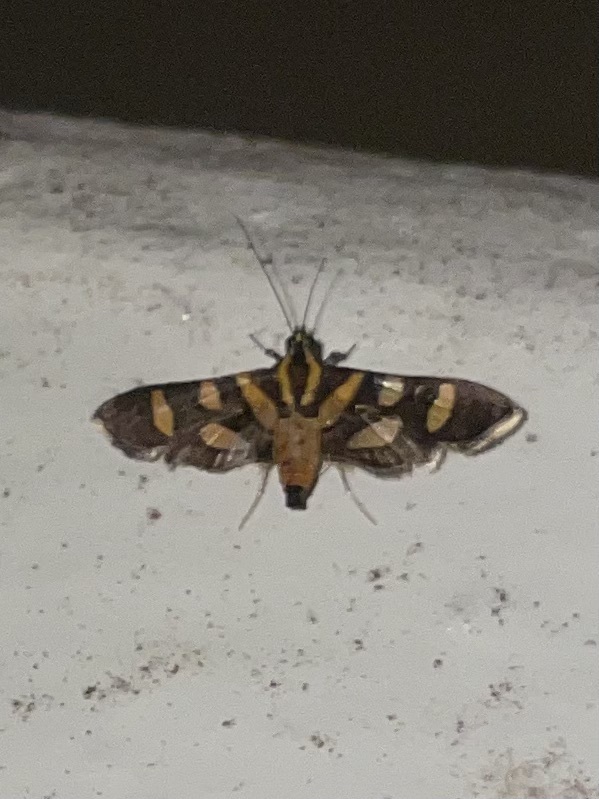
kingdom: Animalia
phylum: Arthropoda
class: Insecta
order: Lepidoptera
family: Crambidae
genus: Syngamia
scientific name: Syngamia florella
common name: Orange-spotted flower moth
